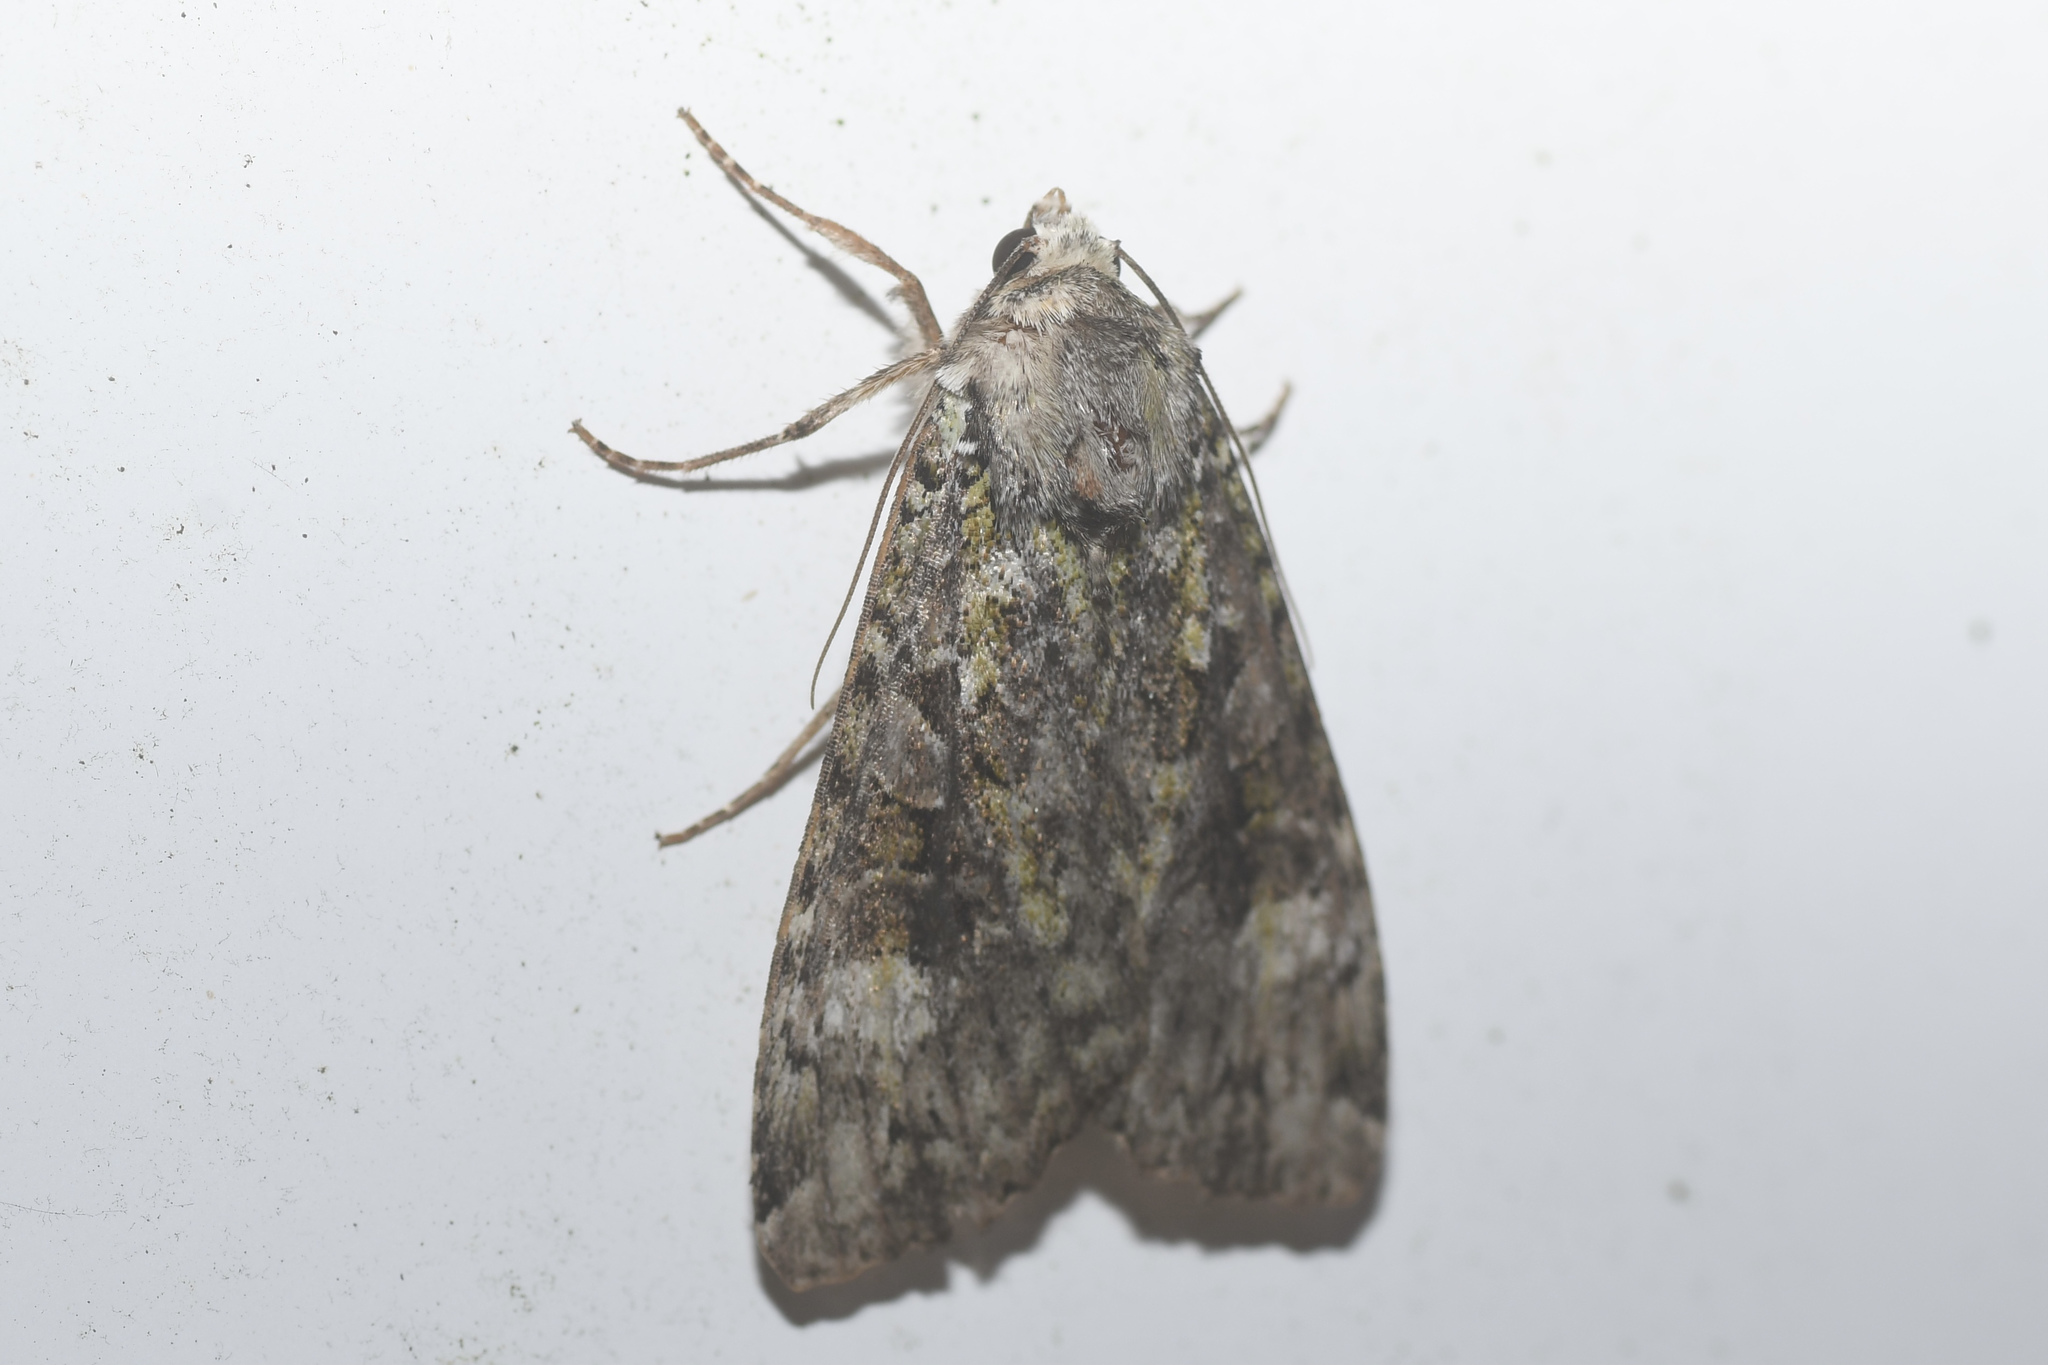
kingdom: Animalia
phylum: Arthropoda
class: Insecta
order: Lepidoptera
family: Noctuidae
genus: Anaplectoides
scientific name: Anaplectoides prasina
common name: Green arches
